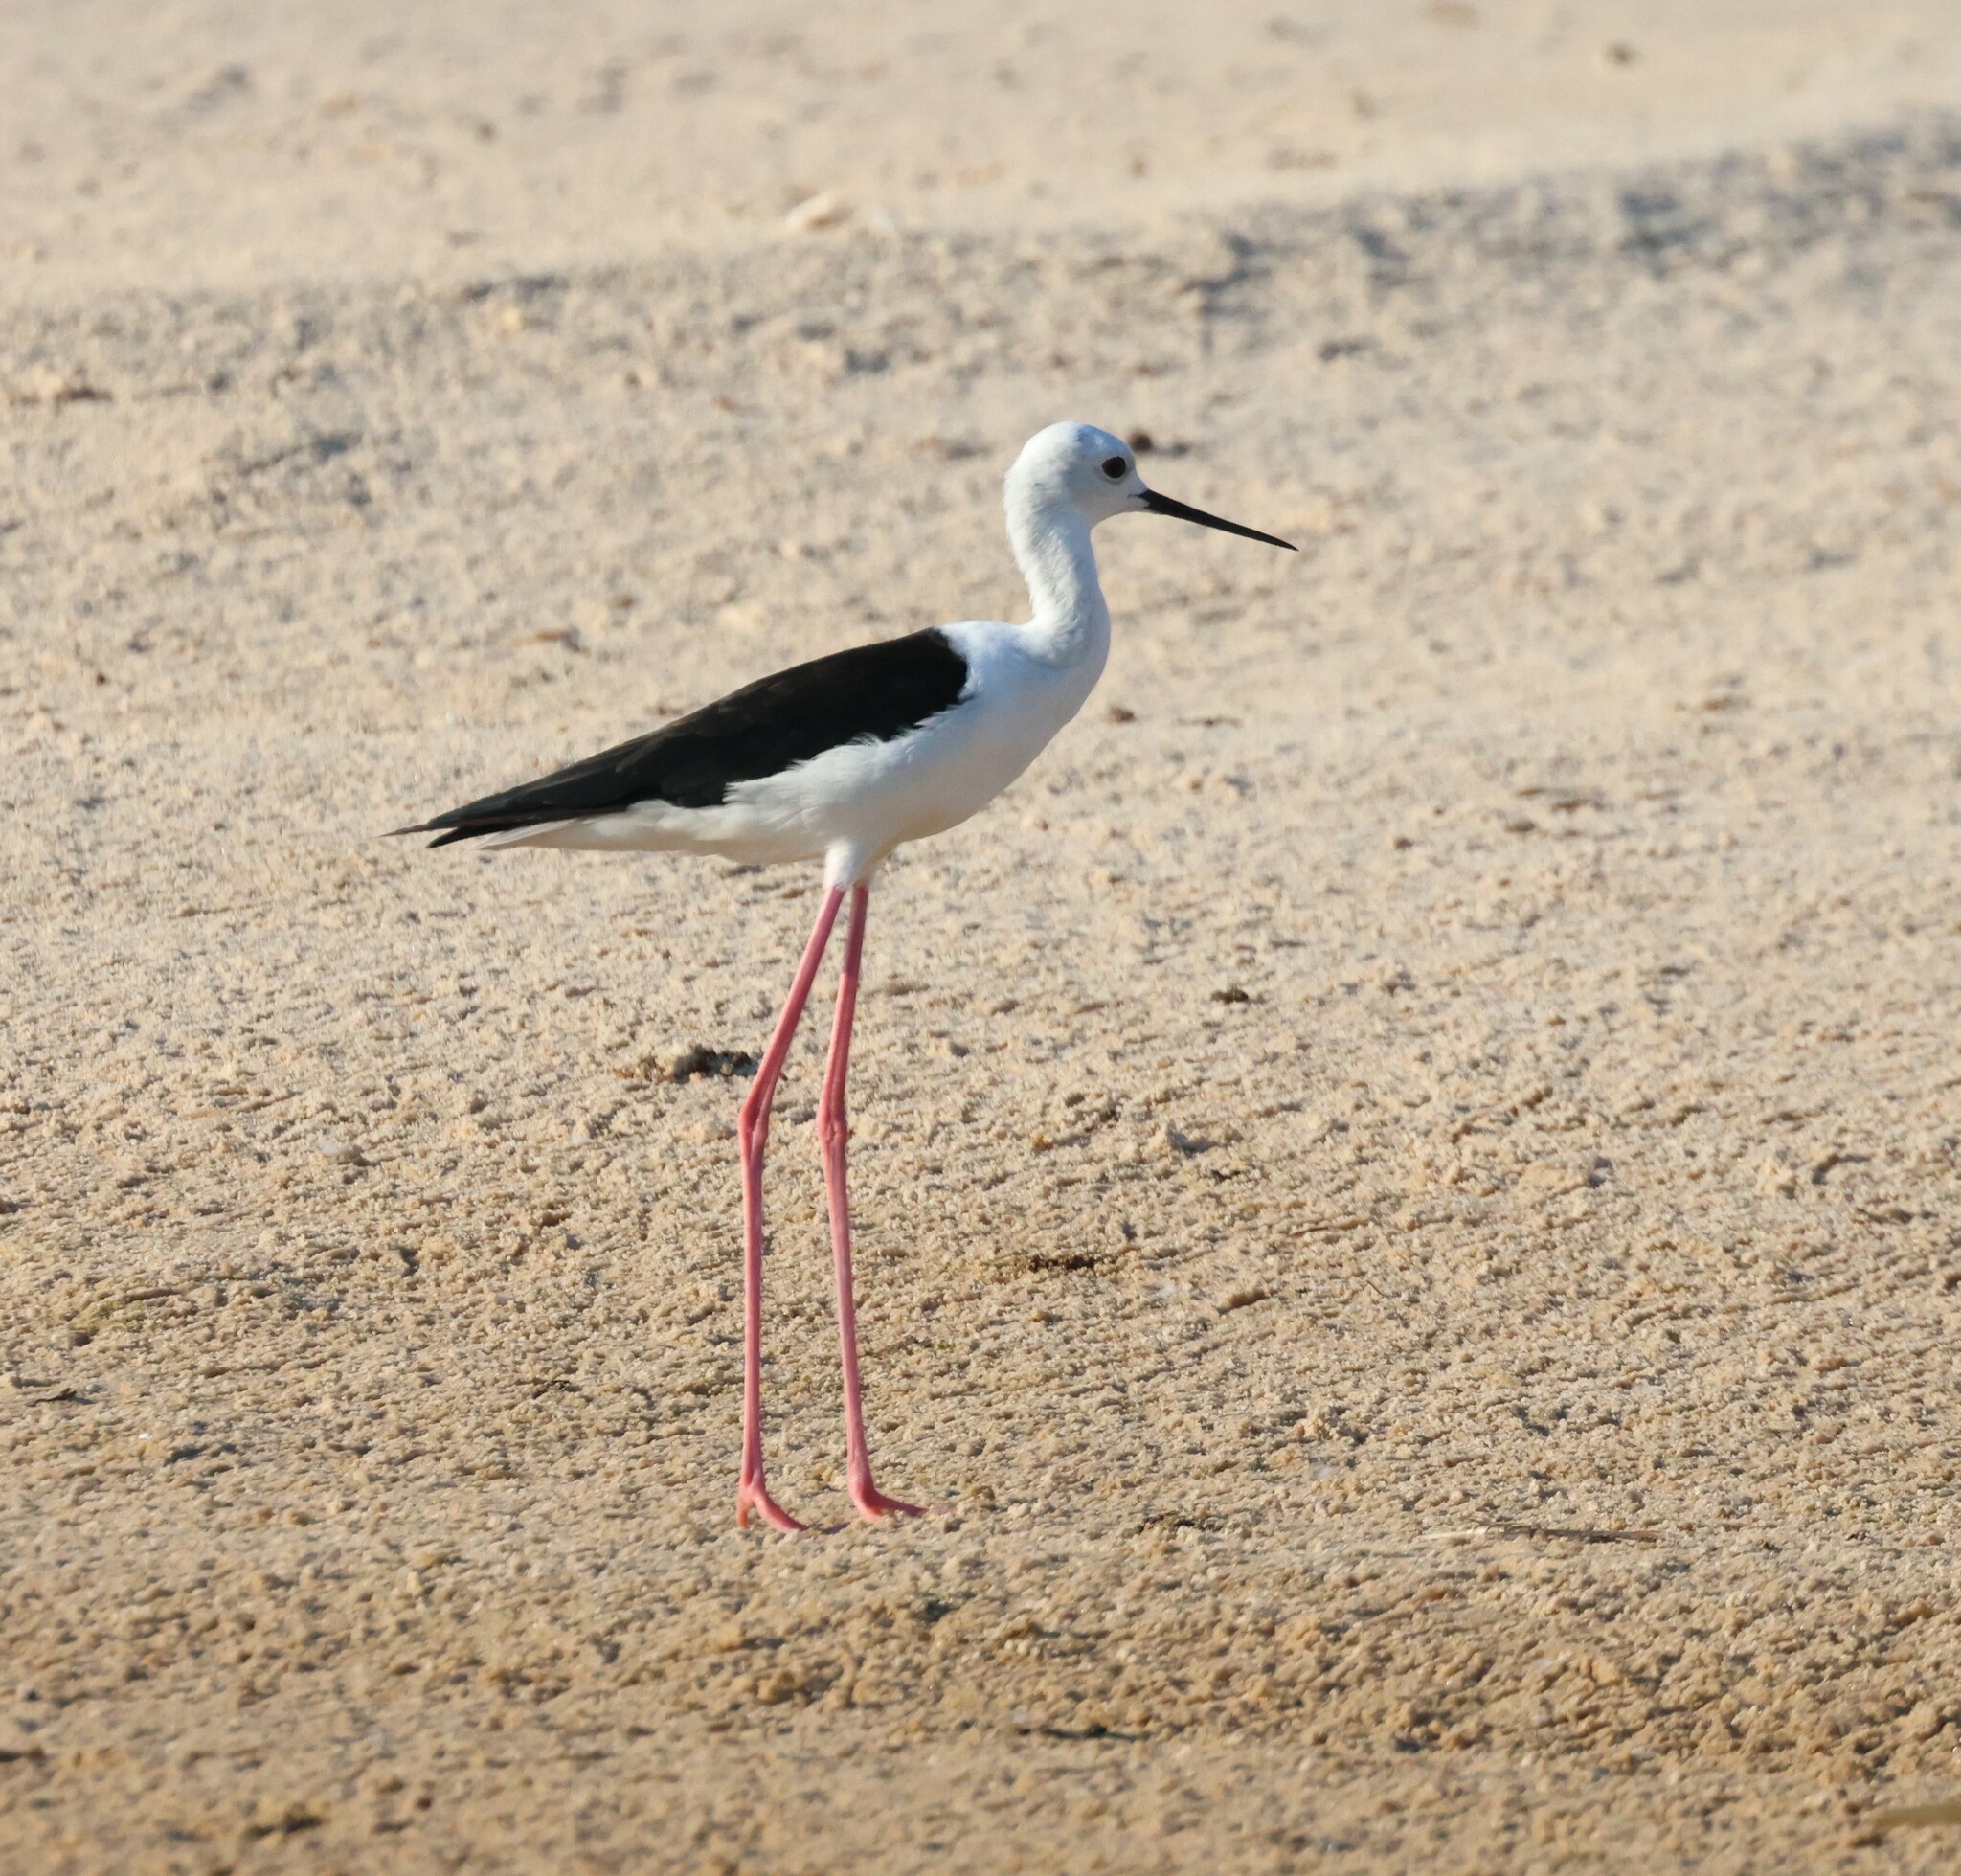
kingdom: Animalia
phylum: Chordata
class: Aves
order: Charadriiformes
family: Recurvirostridae
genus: Himantopus
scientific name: Himantopus himantopus
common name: Black-winged stilt
